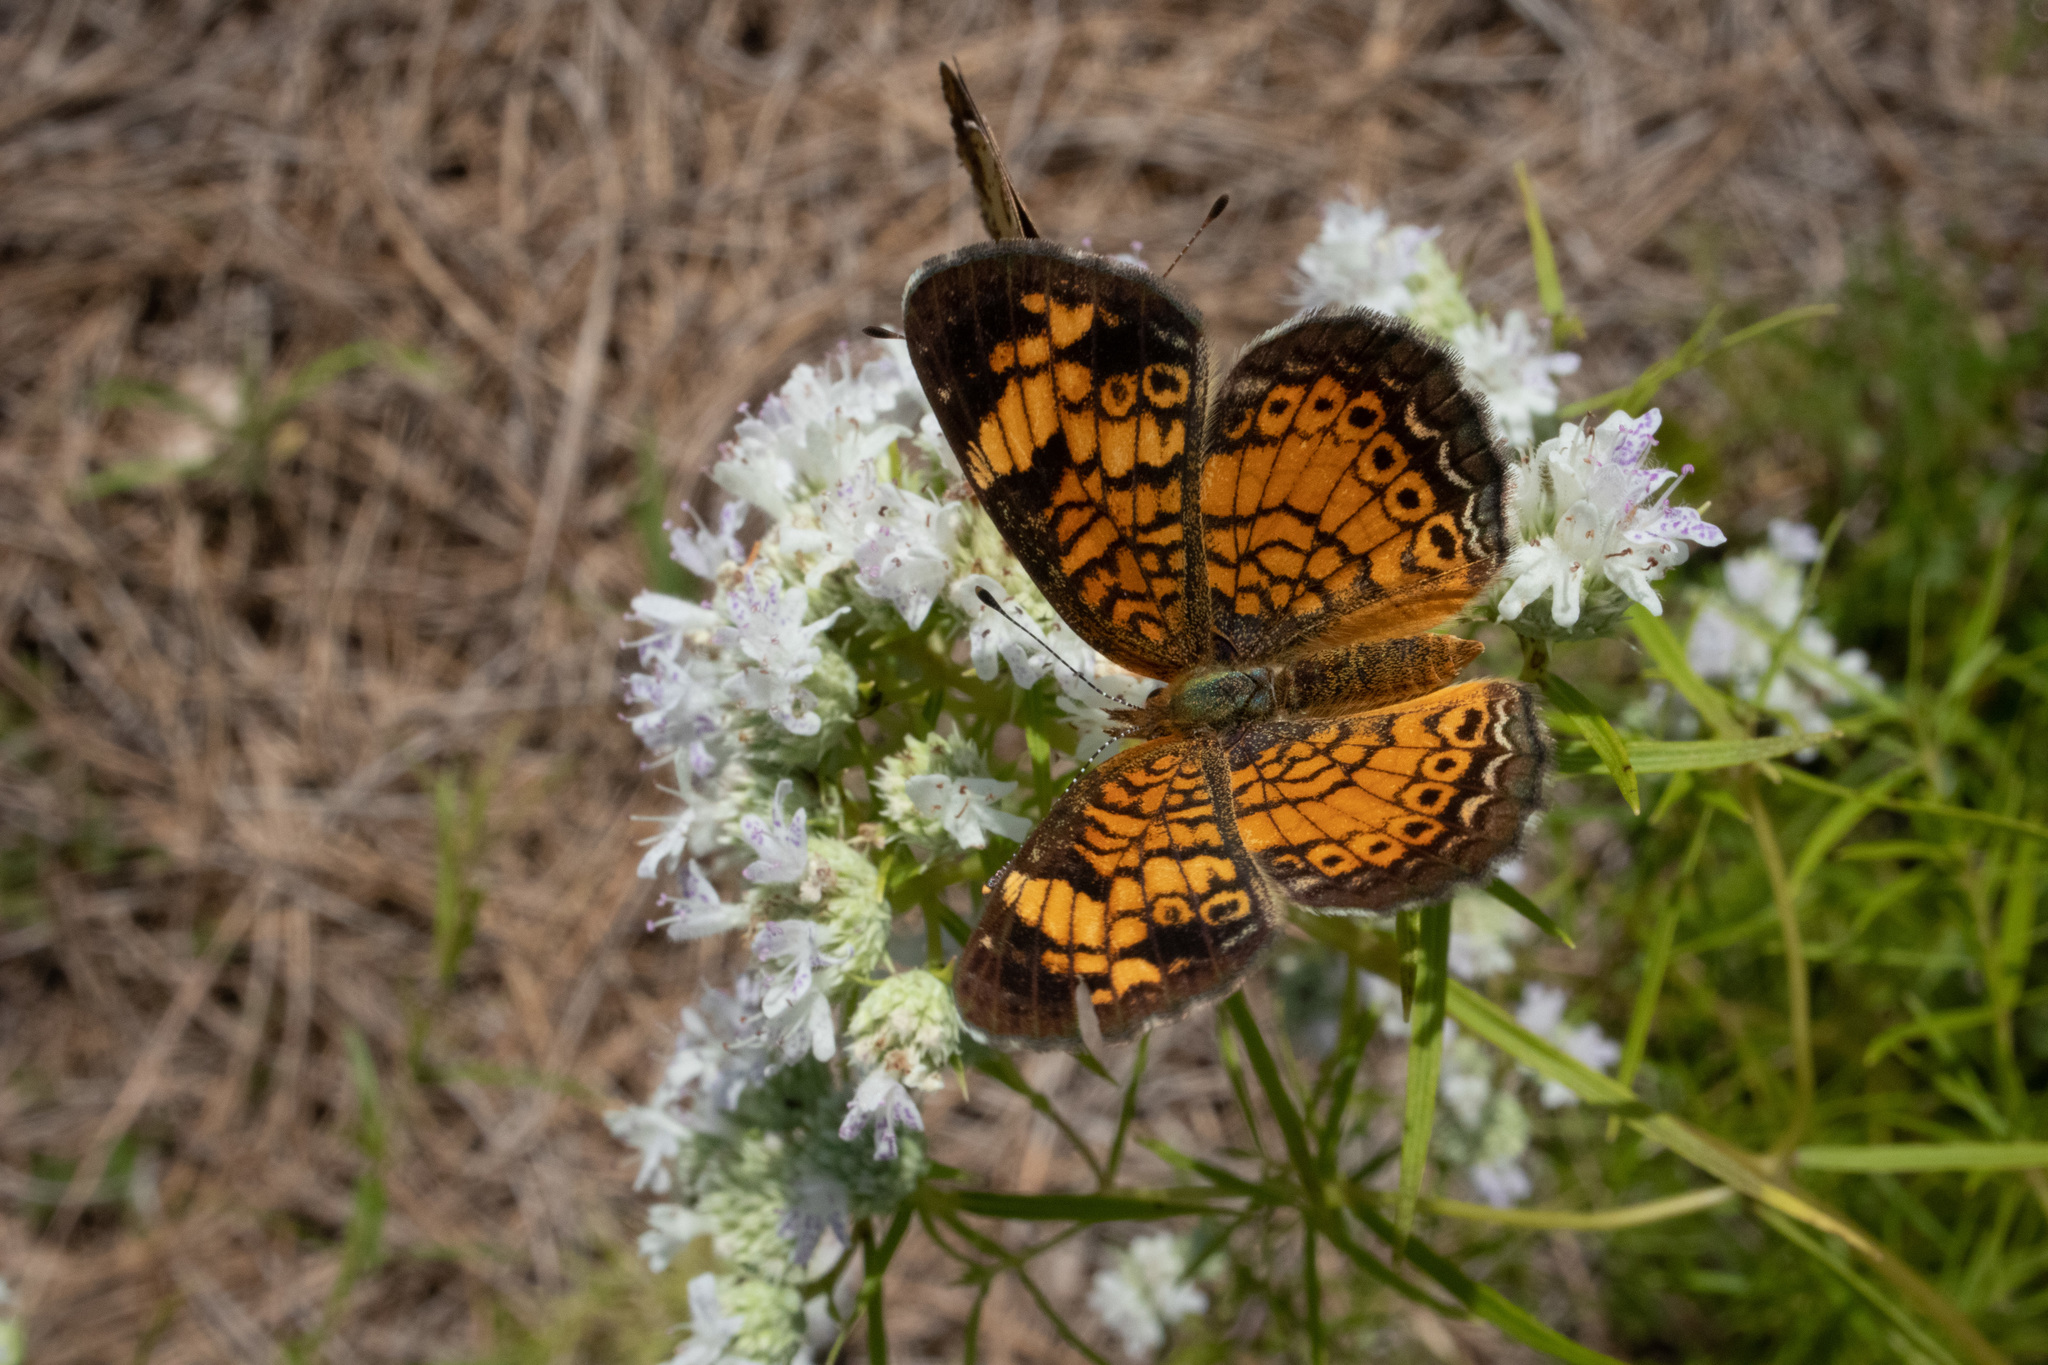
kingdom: Animalia
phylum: Arthropoda
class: Insecta
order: Lepidoptera
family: Nymphalidae
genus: Phyciodes
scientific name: Phyciodes tharos
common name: Pearl crescent
